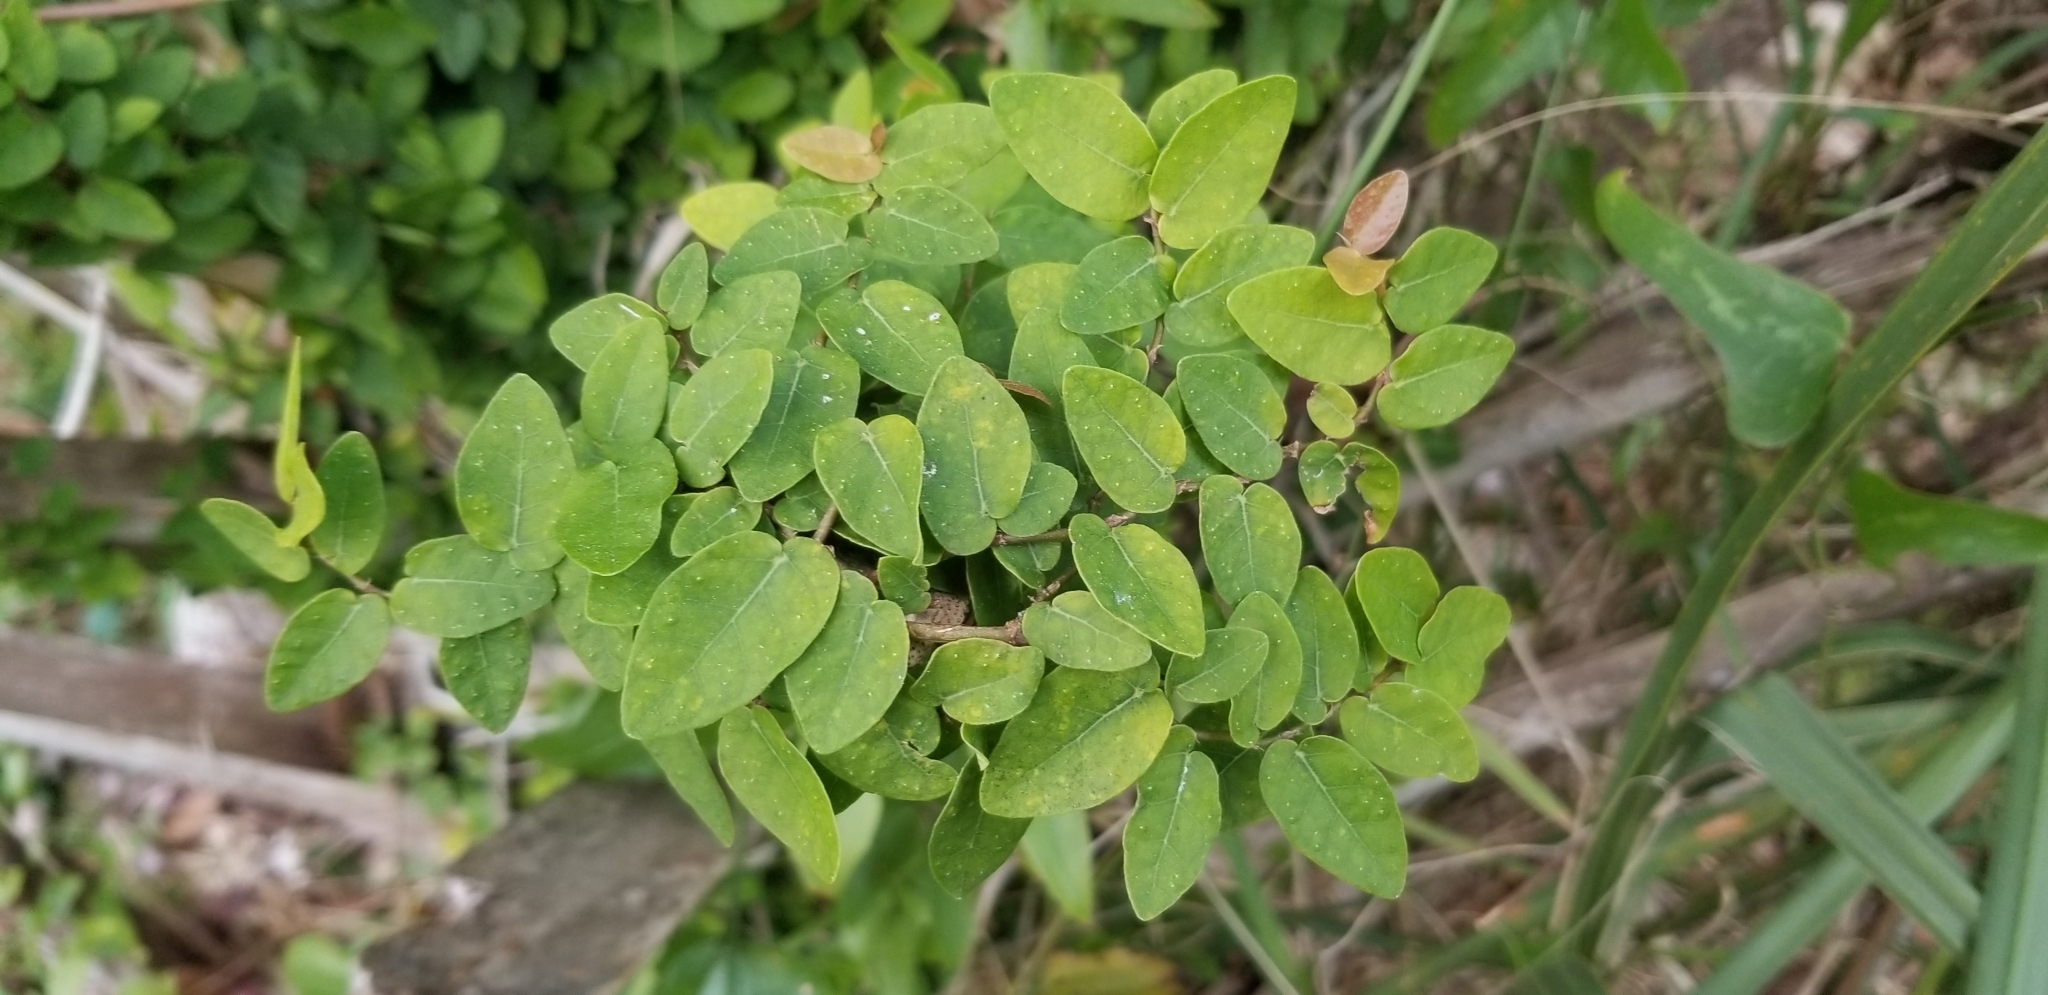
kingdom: Plantae
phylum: Tracheophyta
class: Magnoliopsida
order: Rosales
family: Moraceae
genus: Ficus
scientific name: Ficus pumila
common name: Climbingfig
